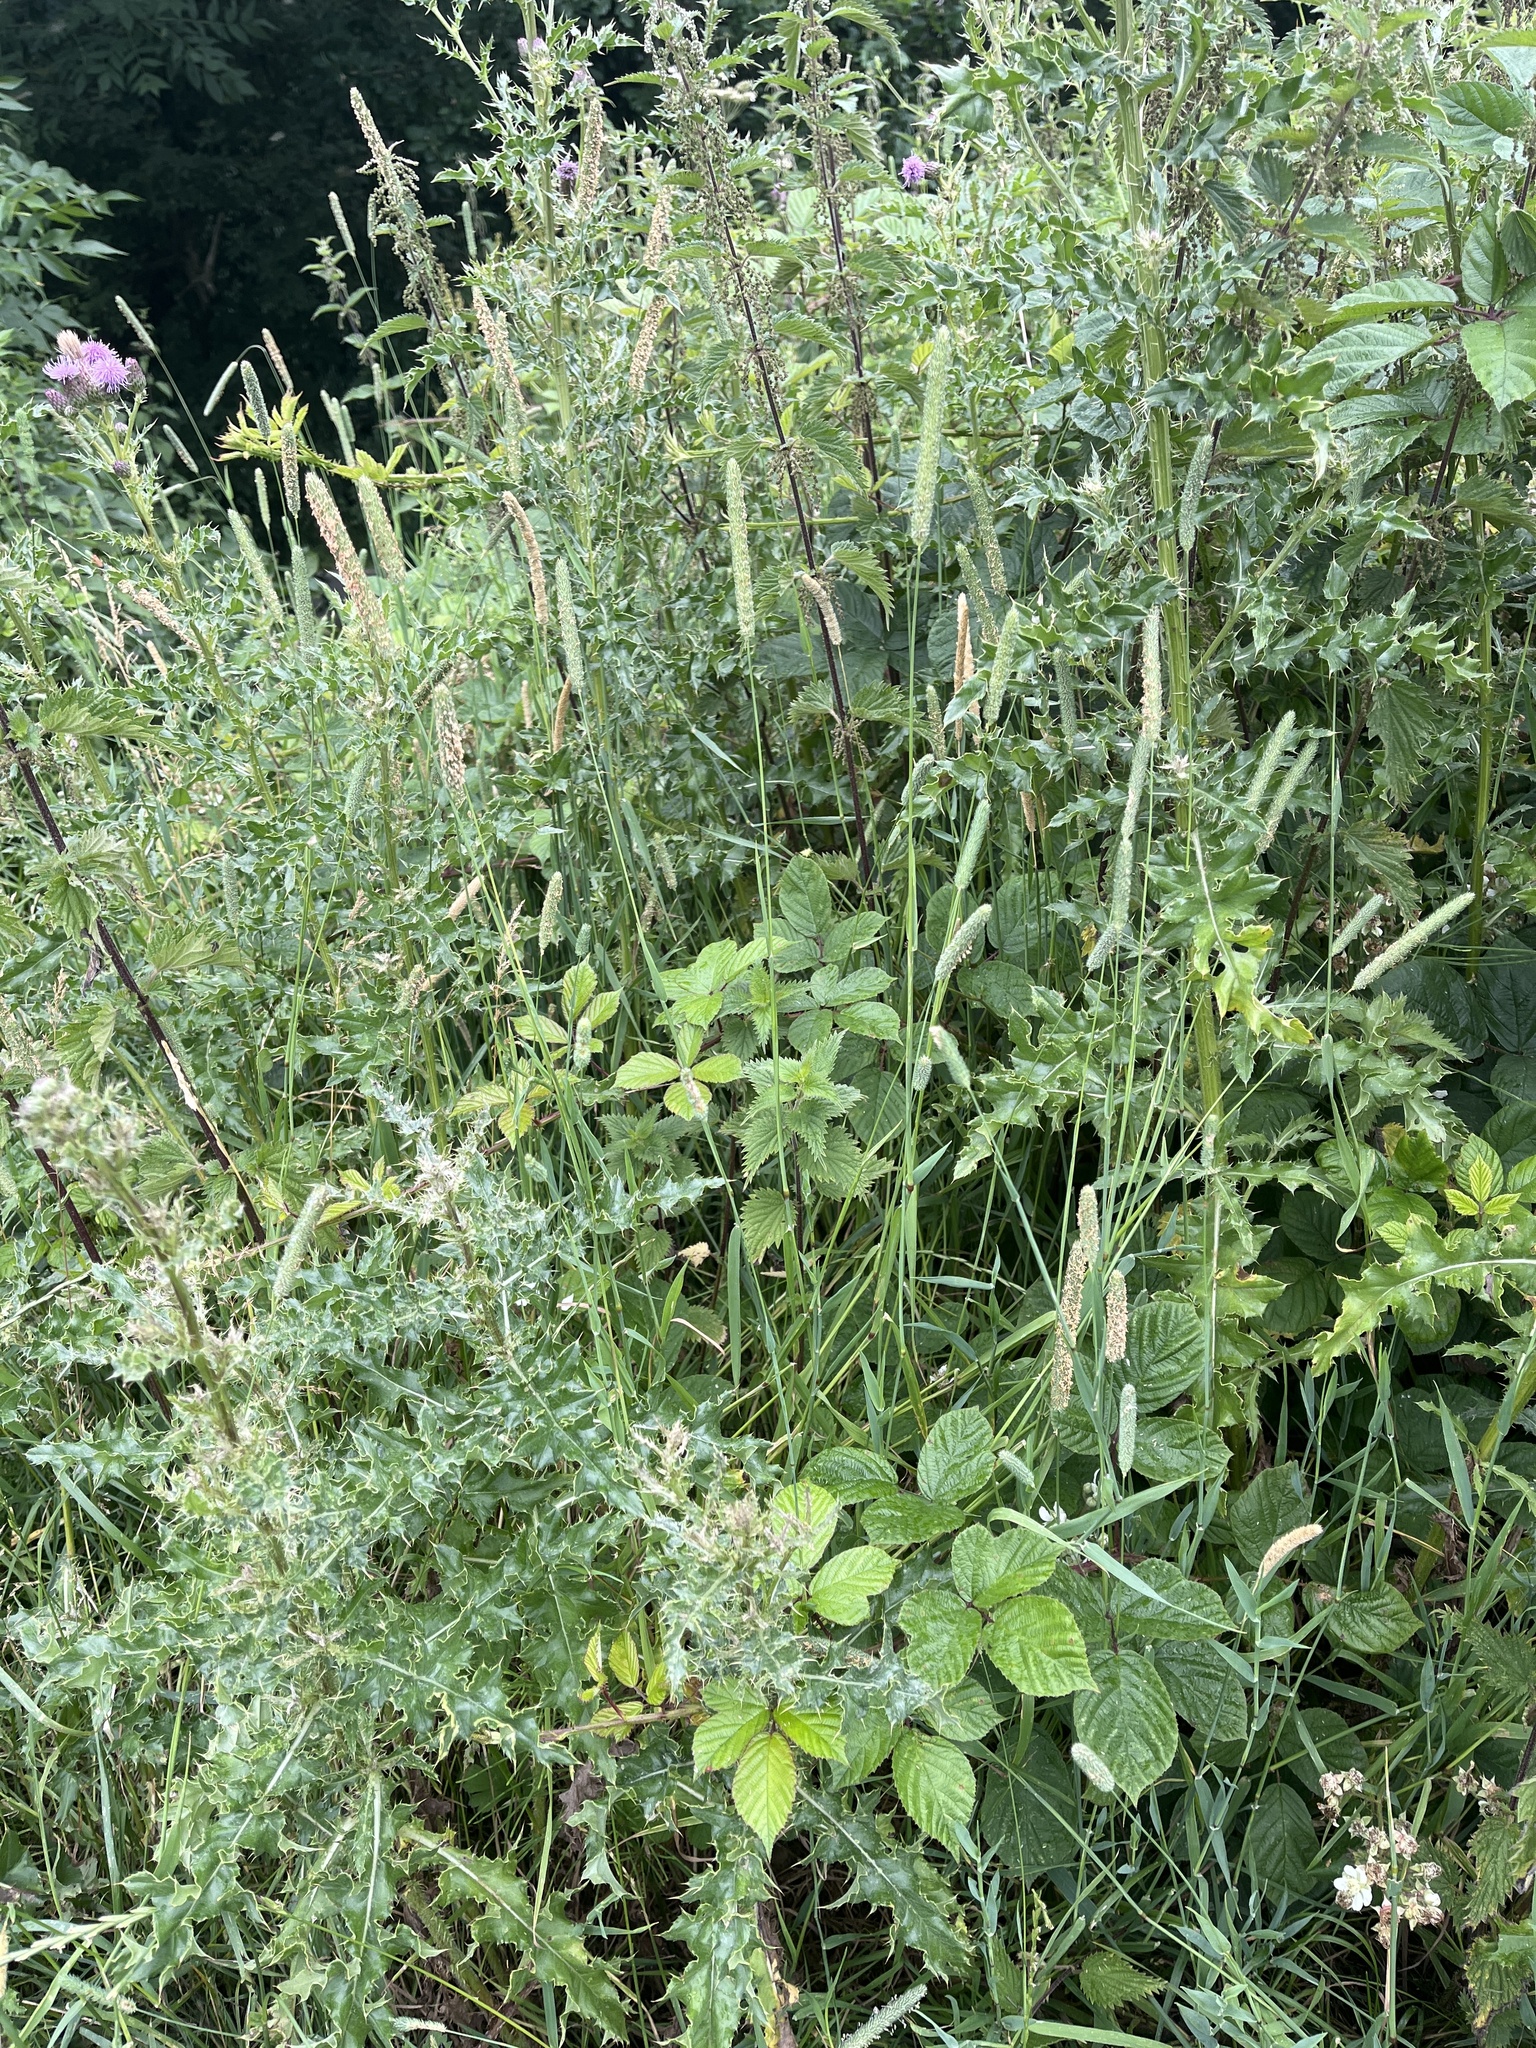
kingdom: Plantae
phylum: Tracheophyta
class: Liliopsida
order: Poales
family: Poaceae
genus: Phleum
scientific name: Phleum pratense
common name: Timothy grass
